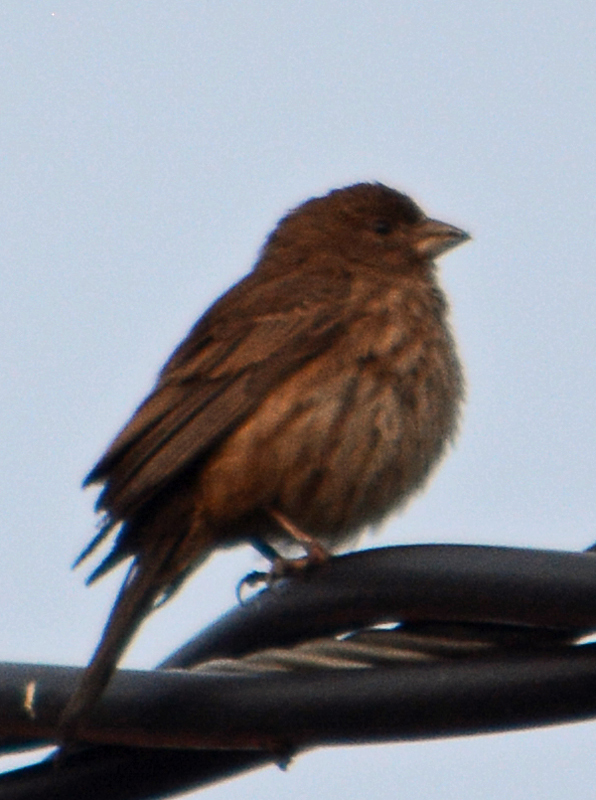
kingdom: Animalia
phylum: Chordata
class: Aves
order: Passeriformes
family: Fringillidae
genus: Haemorhous
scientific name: Haemorhous mexicanus
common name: House finch
